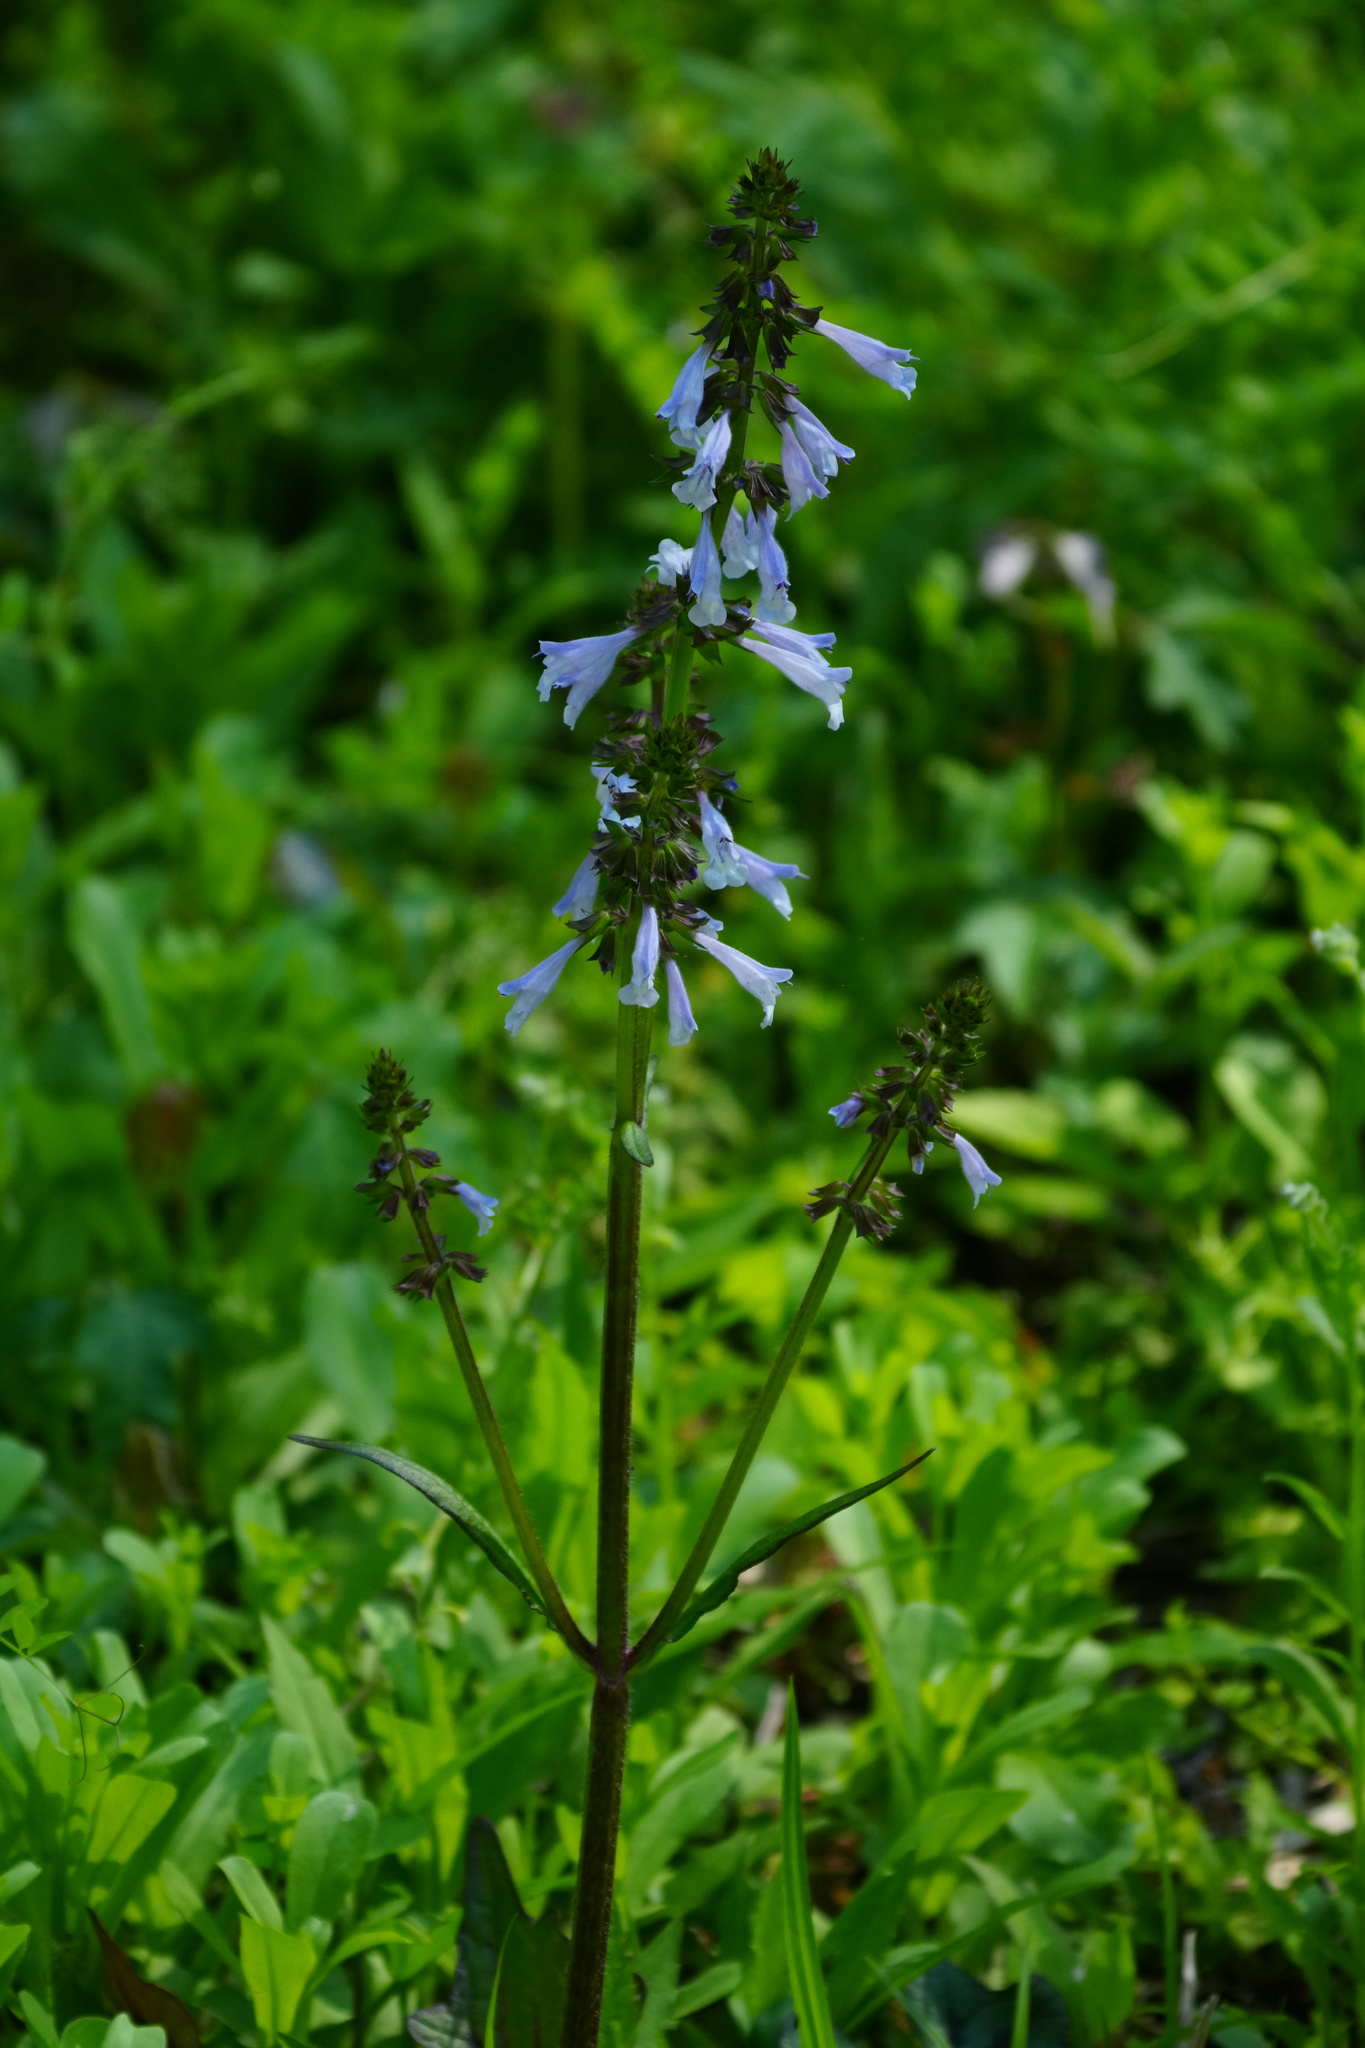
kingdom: Plantae
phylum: Tracheophyta
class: Magnoliopsida
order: Lamiales
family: Lamiaceae
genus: Salvia
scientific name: Salvia lyrata
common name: Cancerweed
